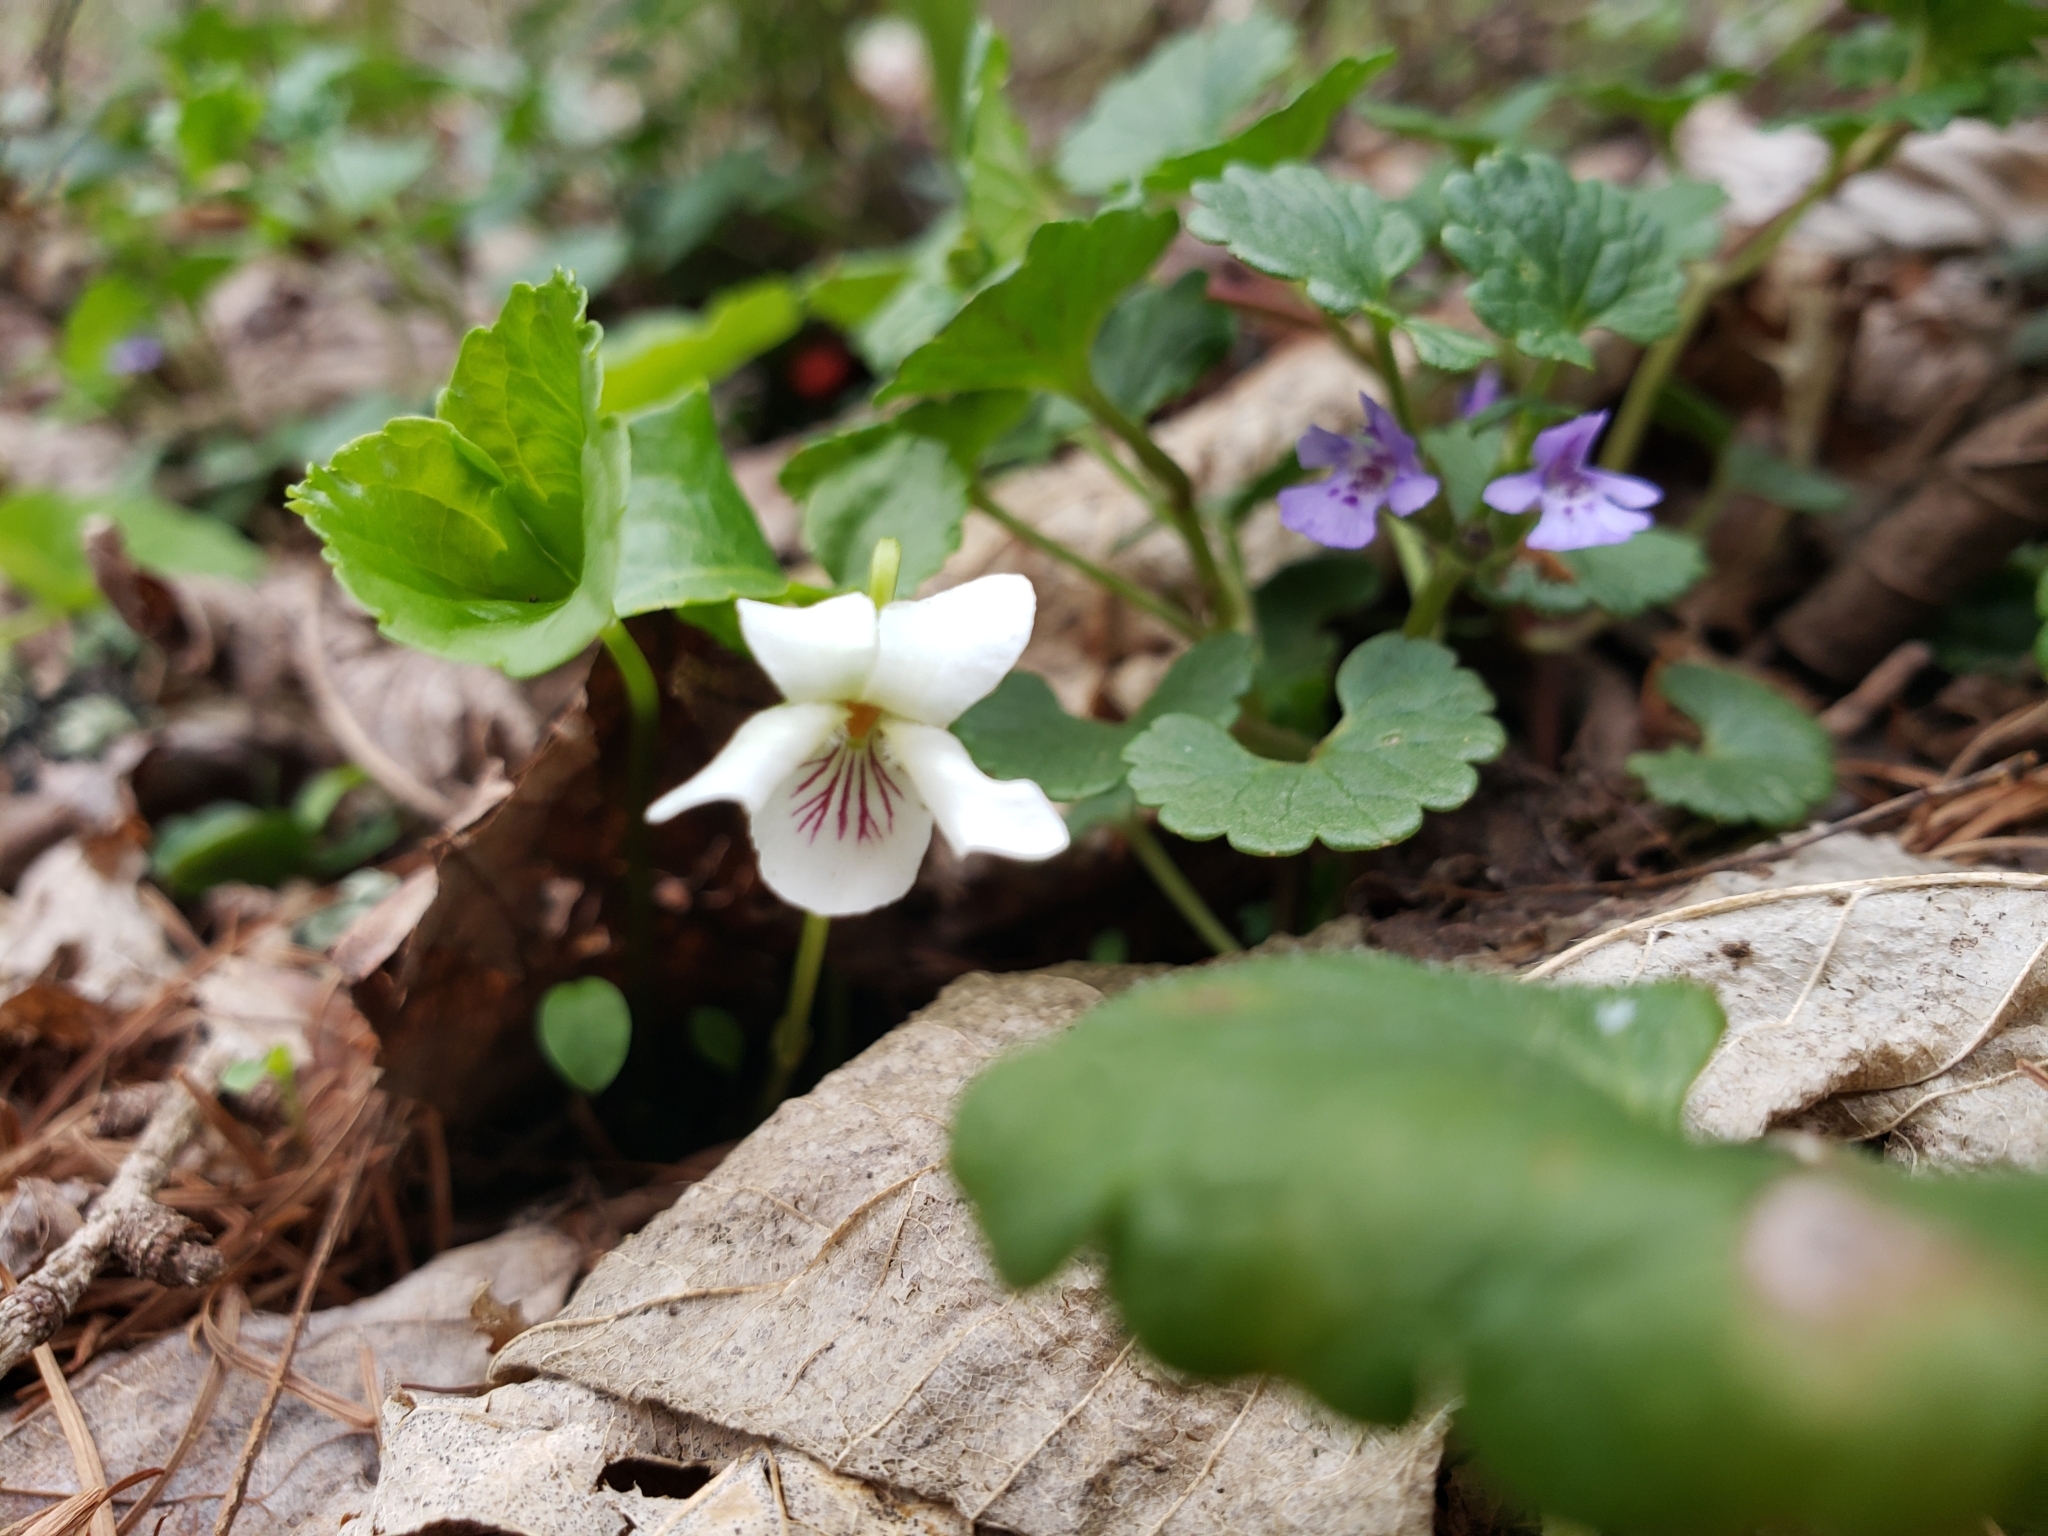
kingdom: Plantae
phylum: Tracheophyta
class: Magnoliopsida
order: Lamiales
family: Lamiaceae
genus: Glechoma
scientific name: Glechoma hederacea
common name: Ground ivy
